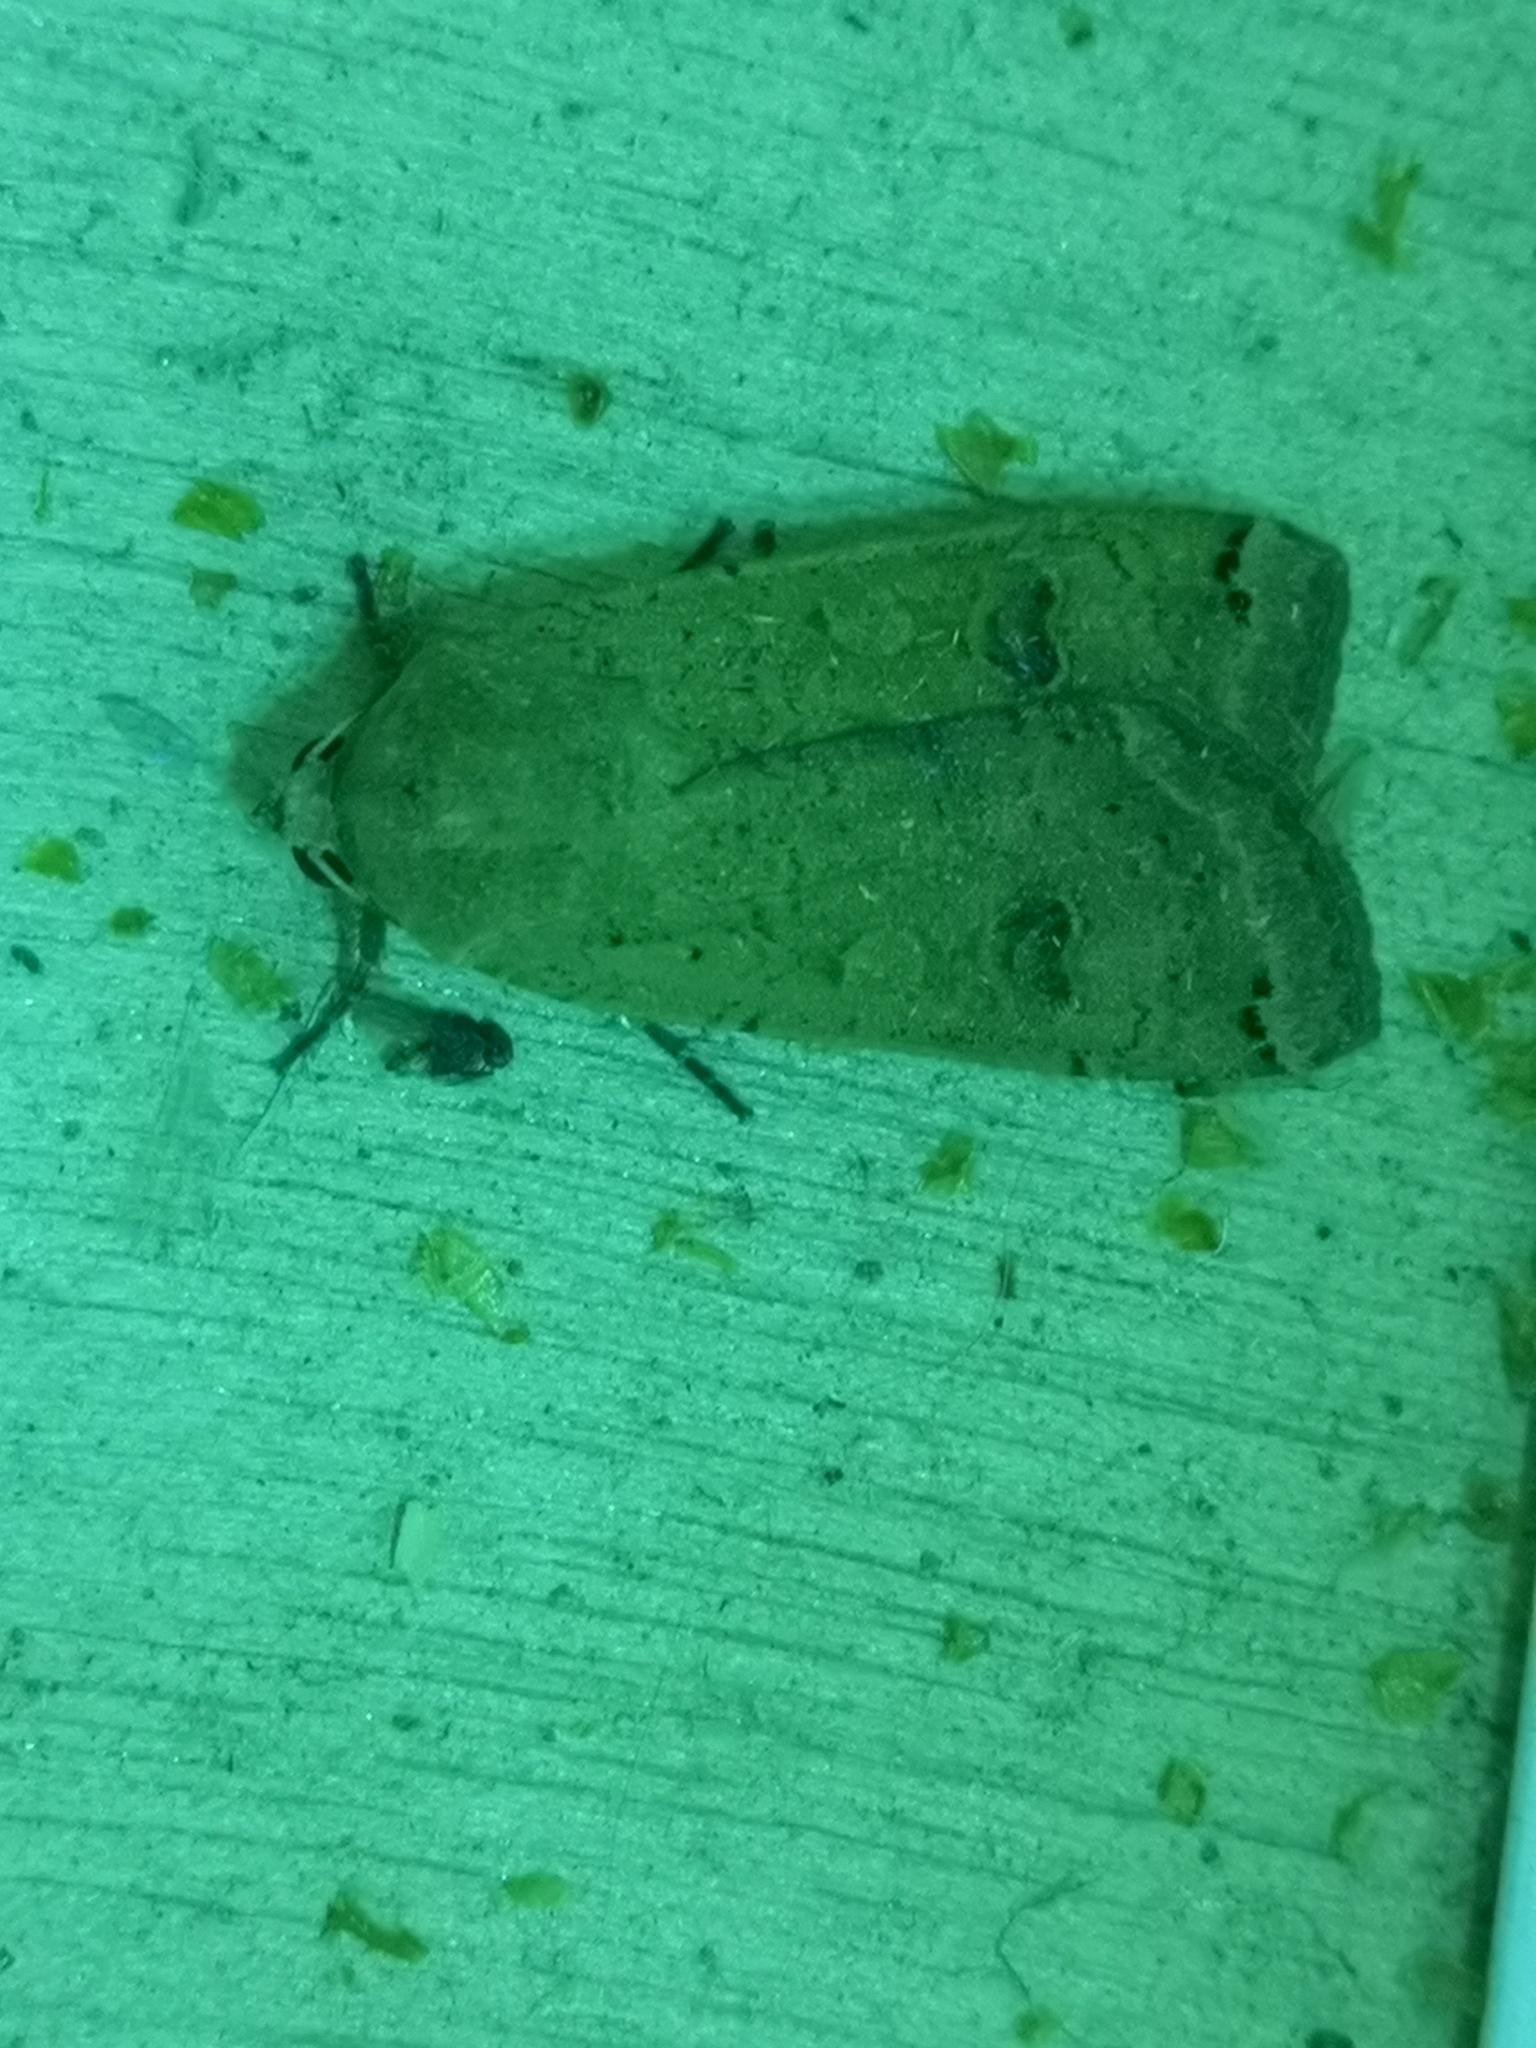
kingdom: Animalia
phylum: Arthropoda
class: Insecta
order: Lepidoptera
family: Noctuidae
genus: Noctua
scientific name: Noctua pronuba
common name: Large yellow underwing
